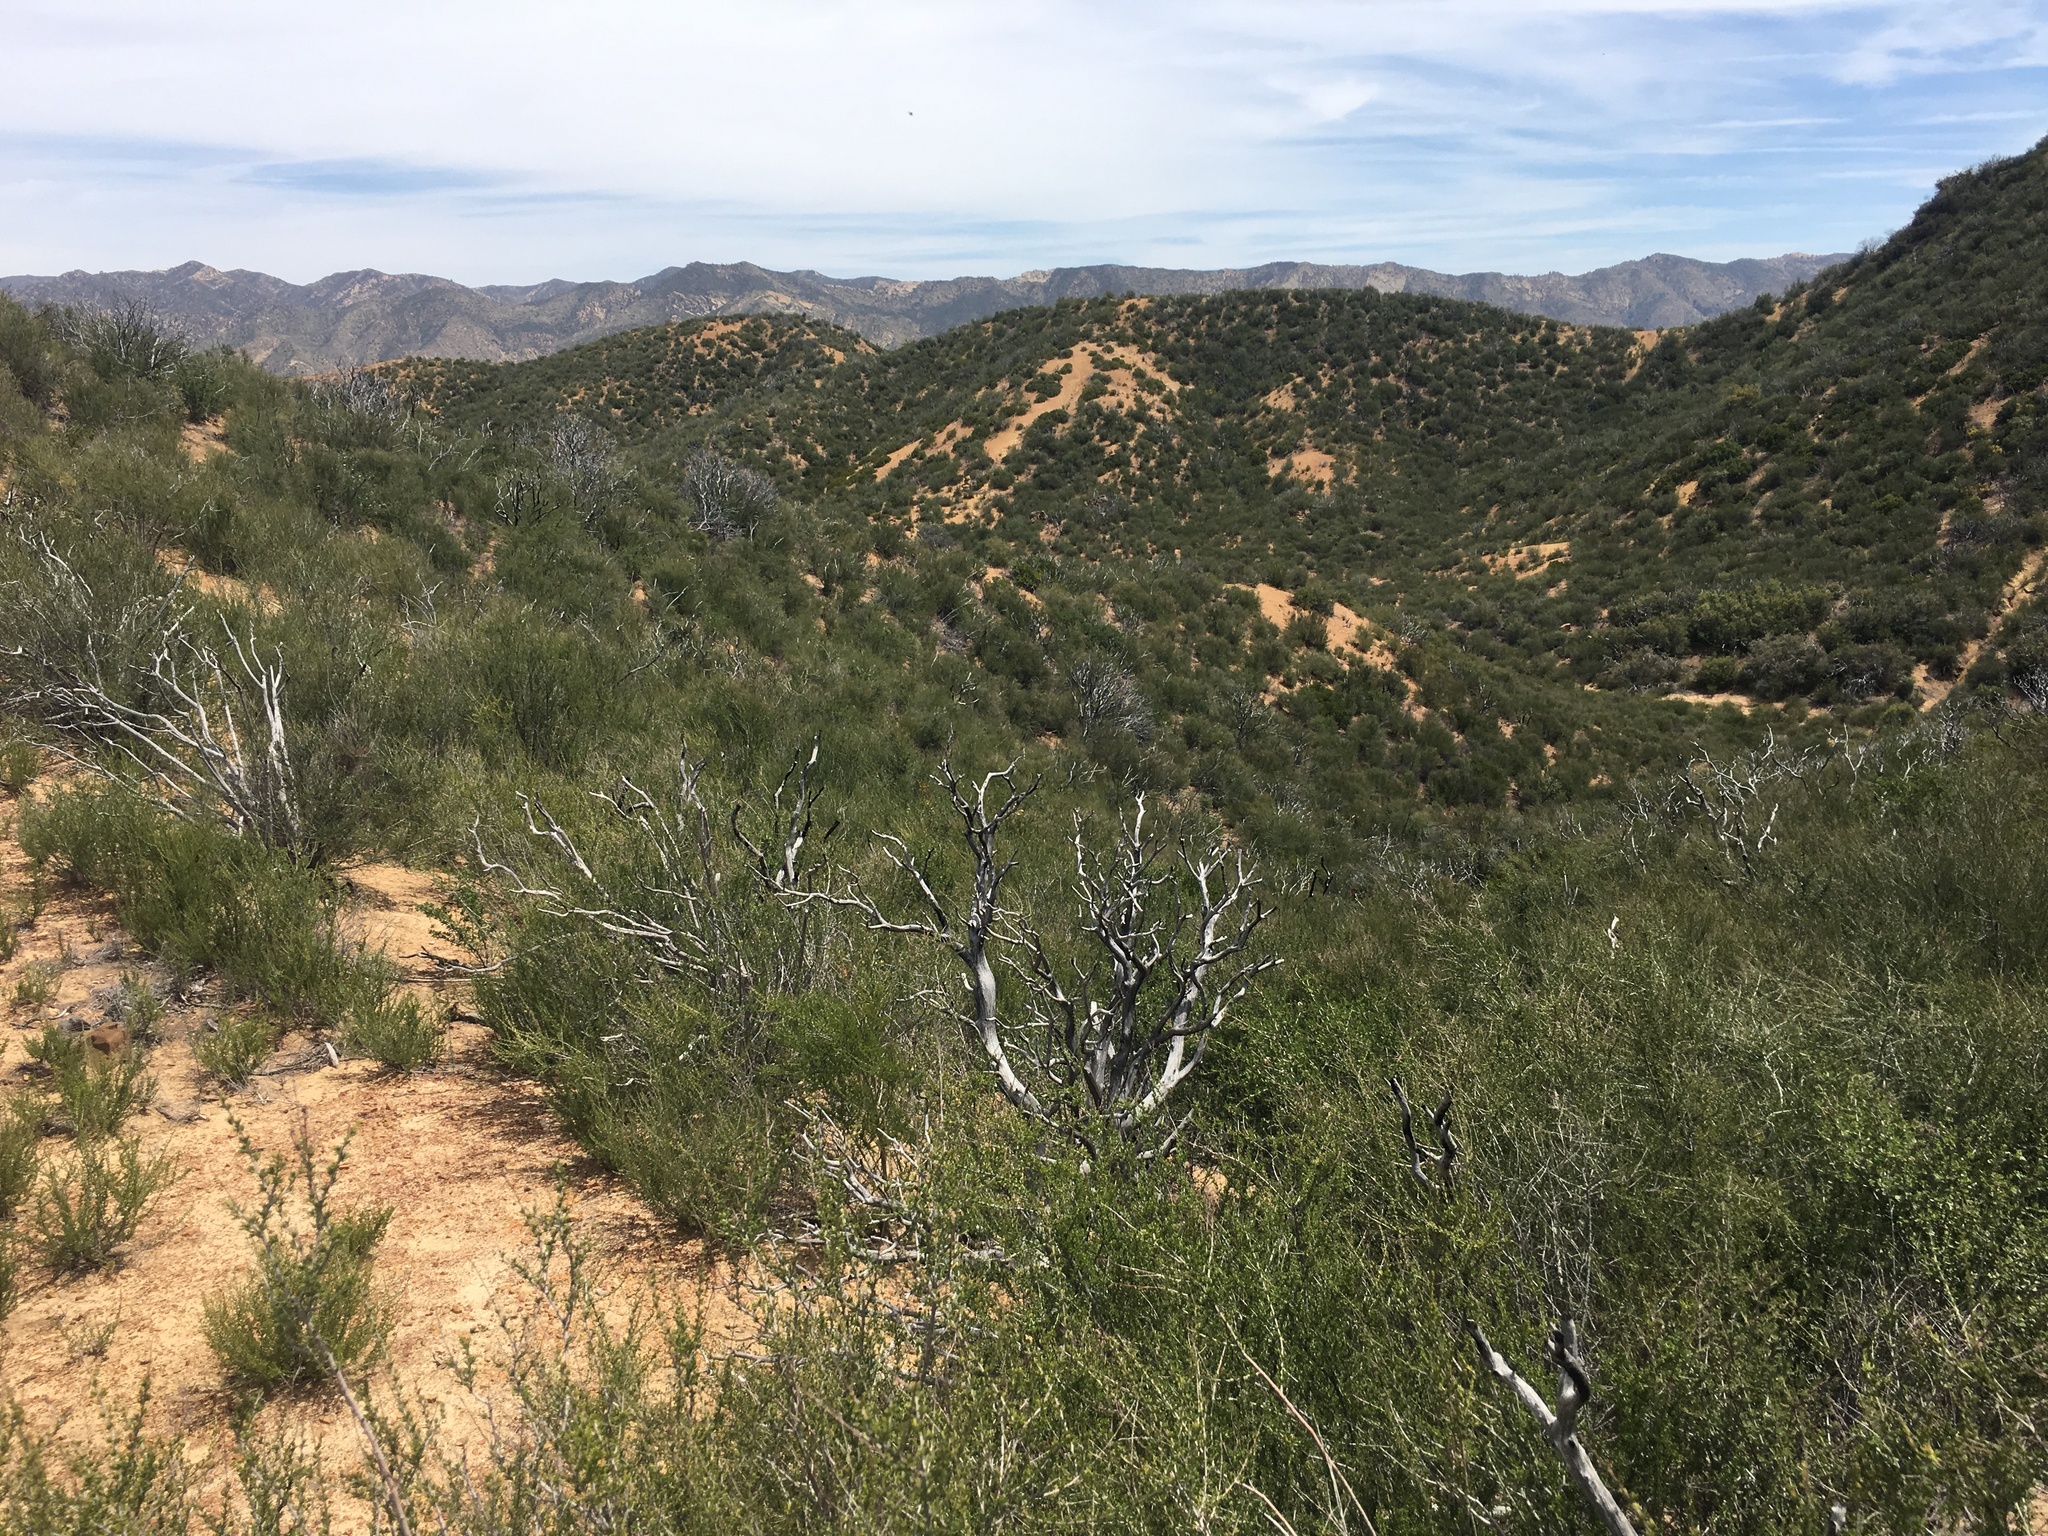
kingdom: Plantae
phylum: Tracheophyta
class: Magnoliopsida
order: Rosales
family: Rosaceae
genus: Adenostoma
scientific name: Adenostoma fasciculatum
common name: Chamise
